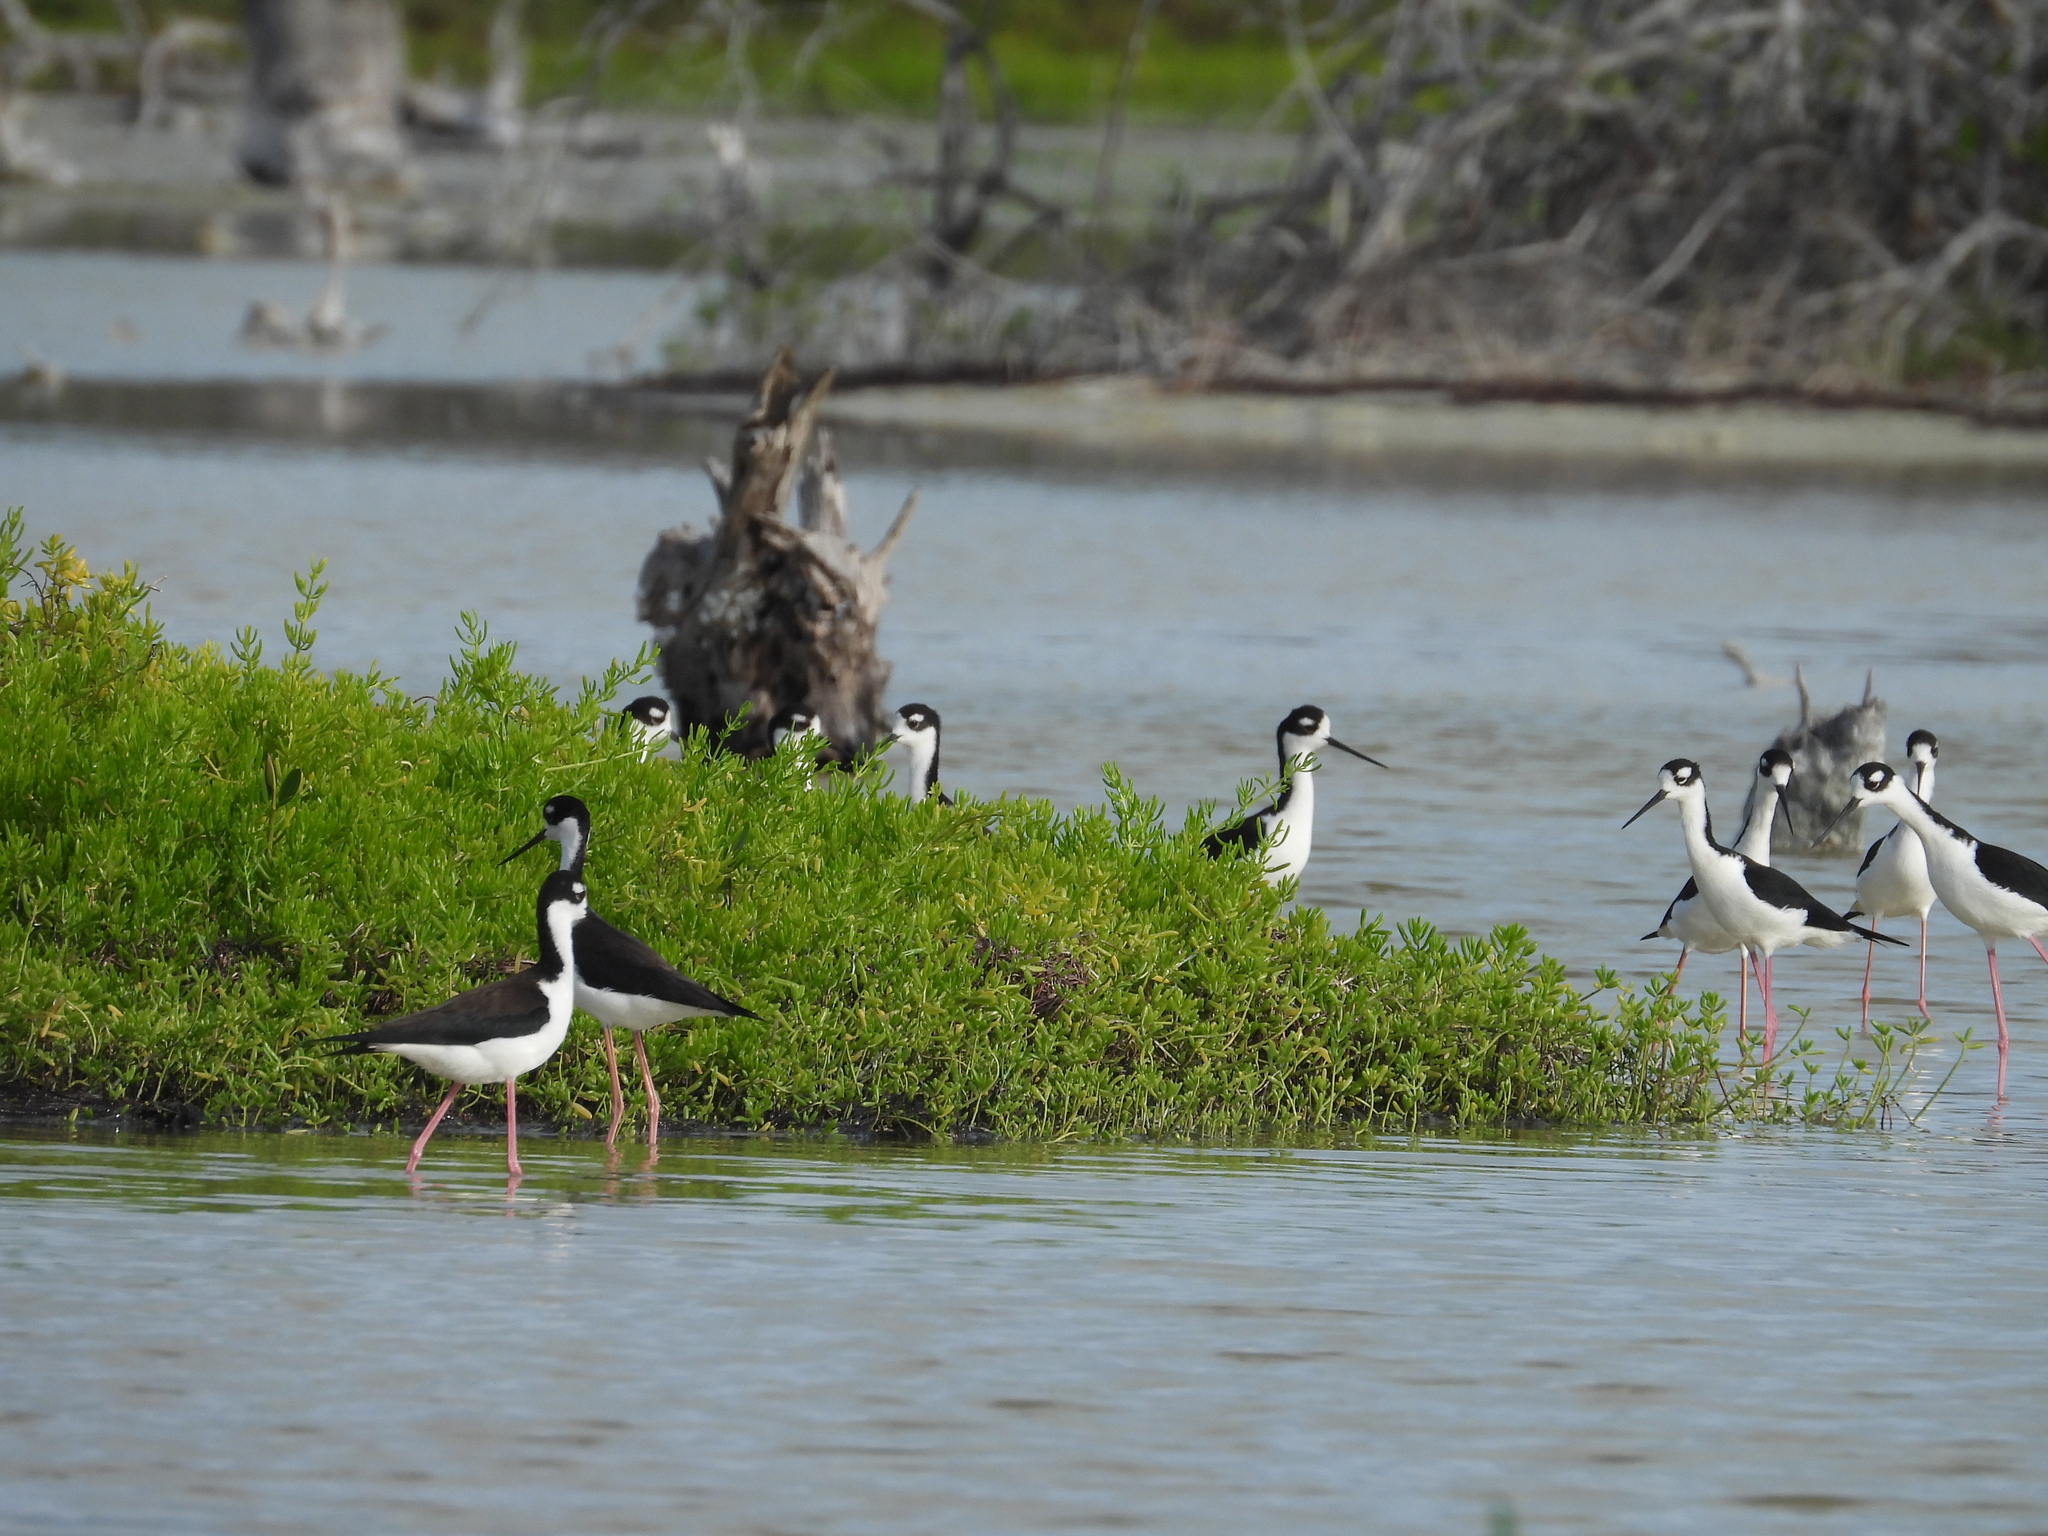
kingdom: Animalia
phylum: Chordata
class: Aves
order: Charadriiformes
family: Recurvirostridae
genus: Himantopus
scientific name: Himantopus mexicanus
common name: Black-necked stilt
